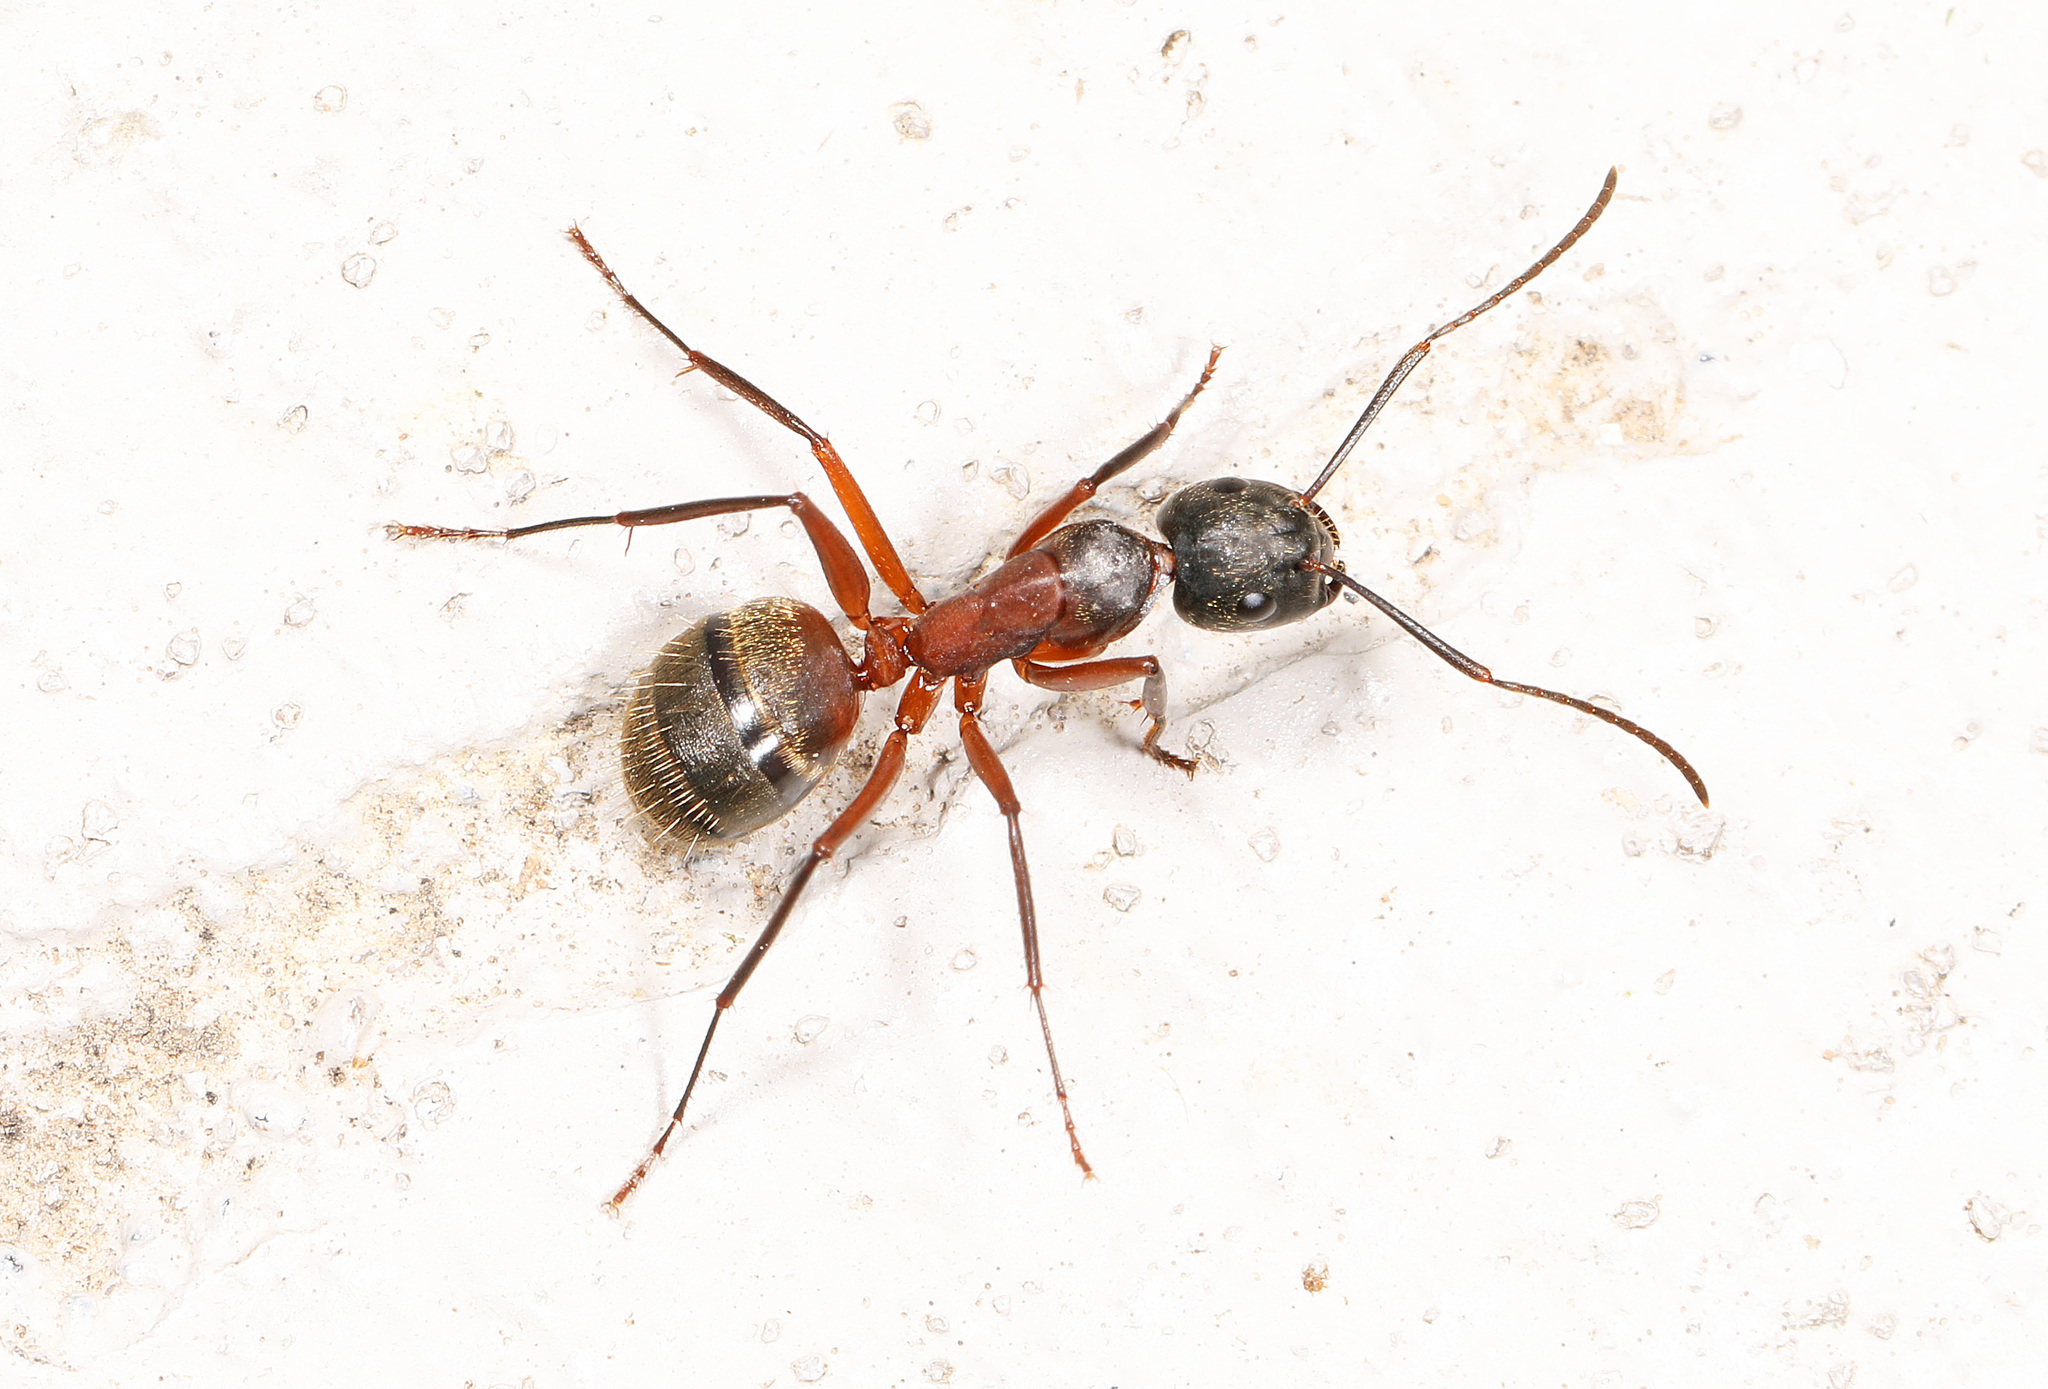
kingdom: Animalia
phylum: Arthropoda
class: Insecta
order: Hymenoptera
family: Formicidae
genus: Camponotus
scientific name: Camponotus chromaiodes
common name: Red carpenter ant
